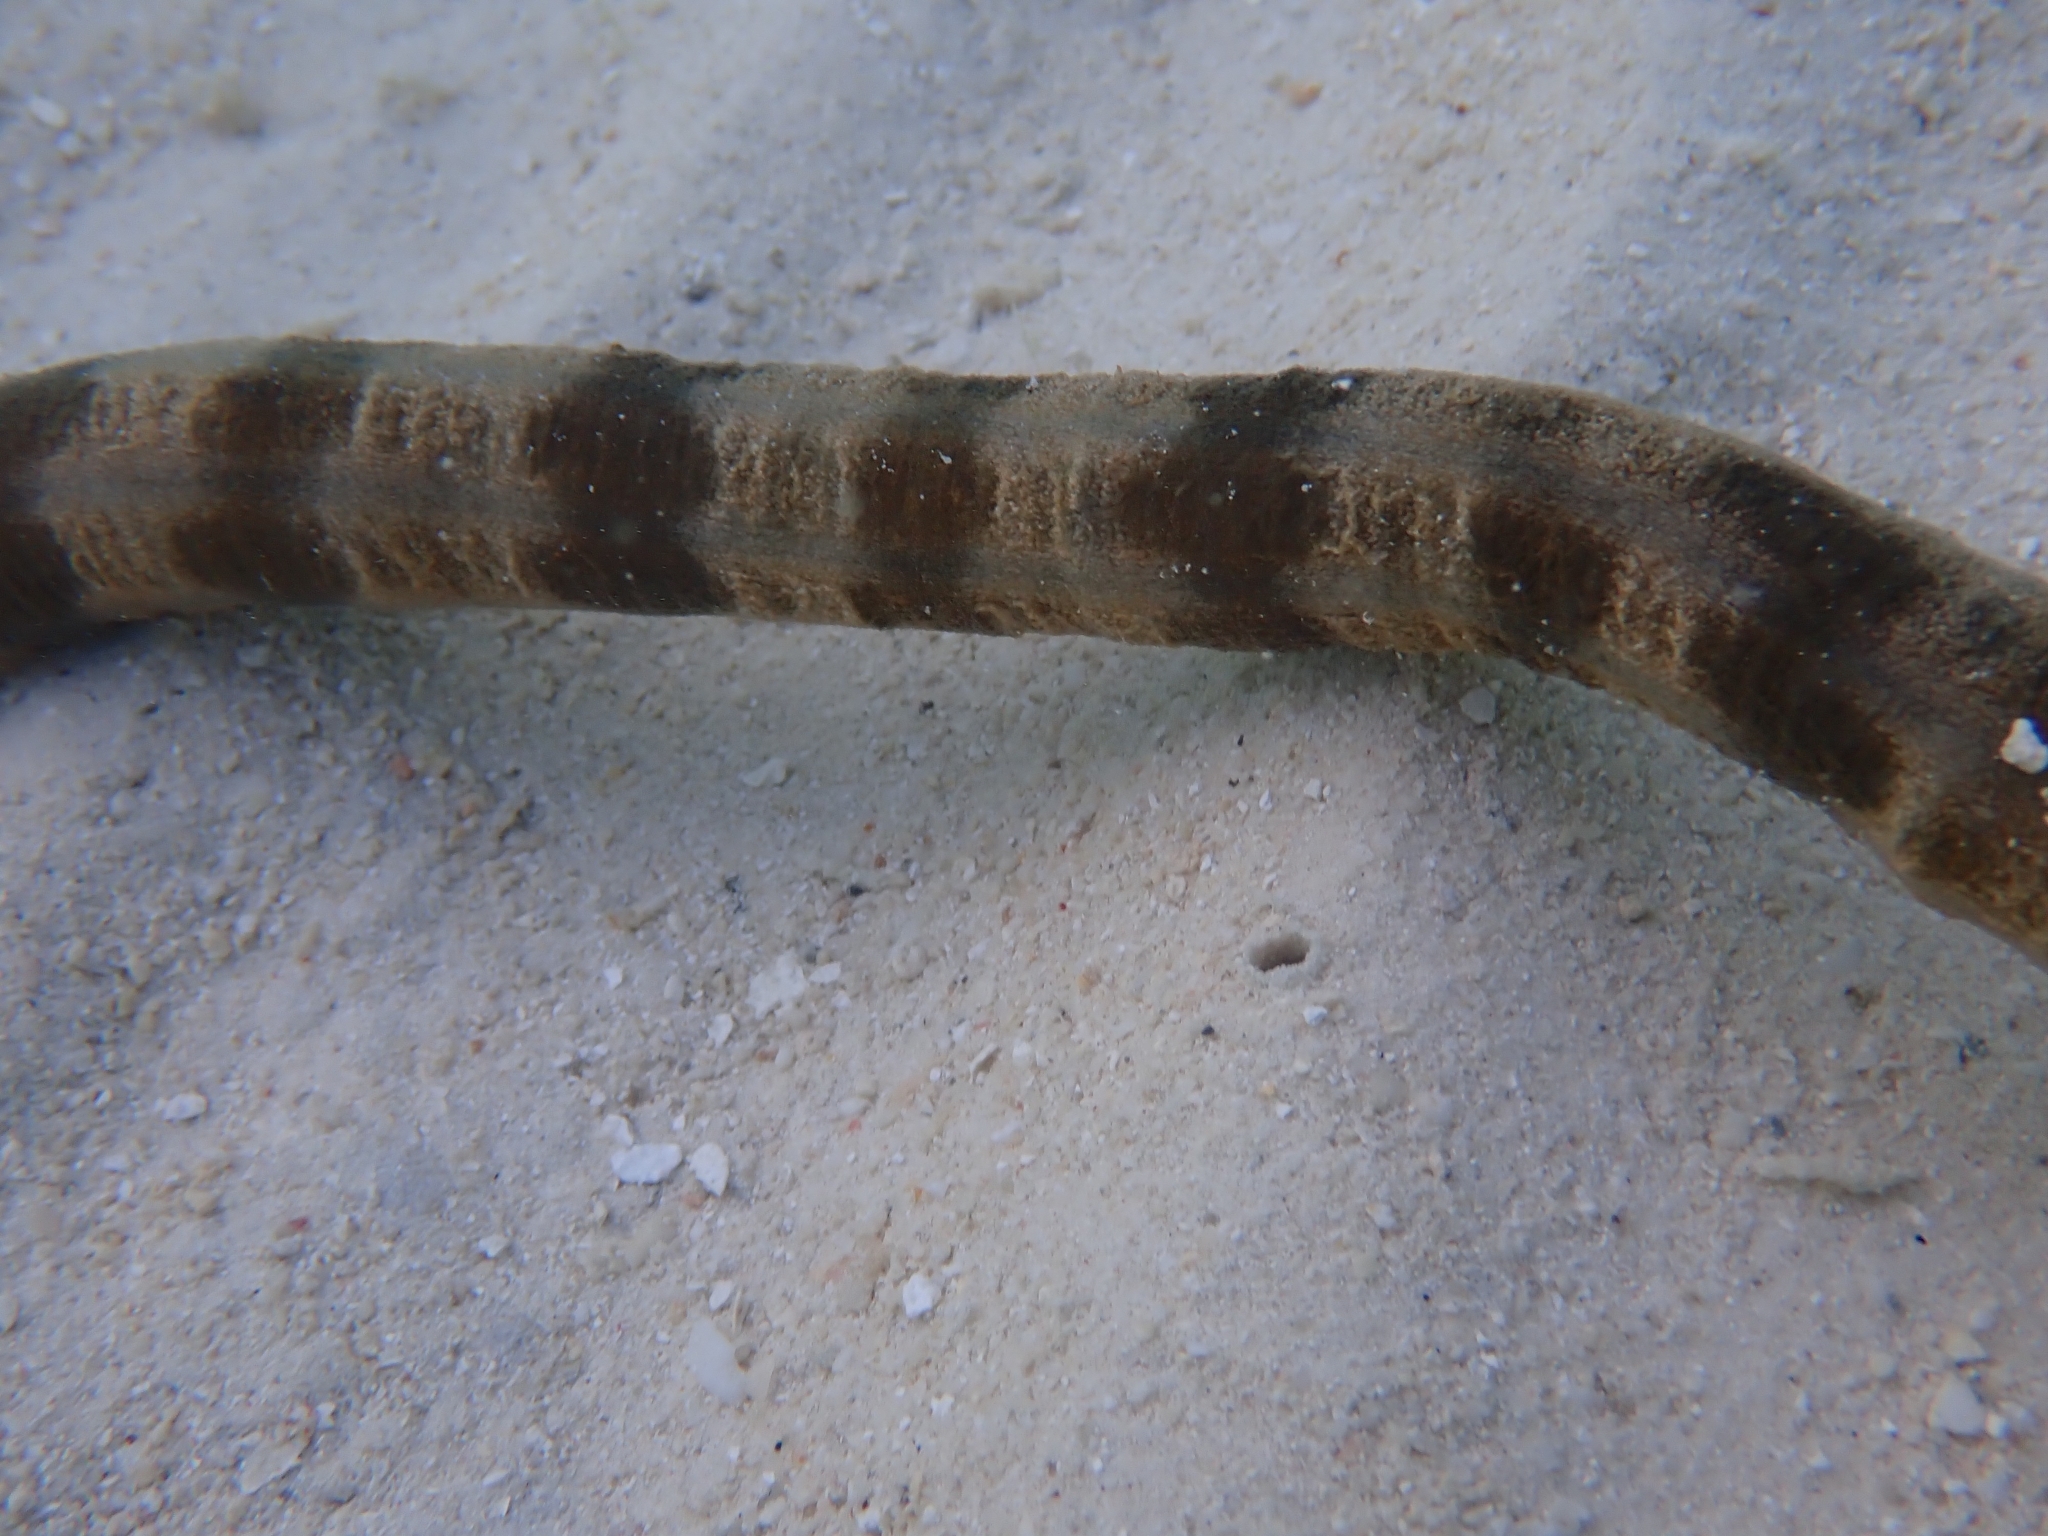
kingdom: Animalia
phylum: Echinodermata
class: Holothuroidea
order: Apodida
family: Synaptidae
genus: Synapta
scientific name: Synapta maculata
